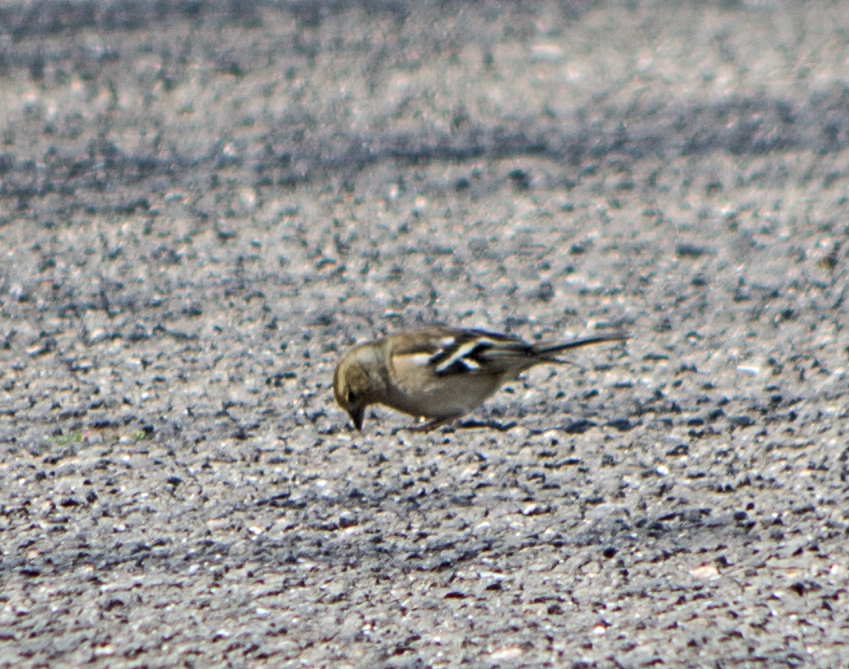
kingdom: Animalia
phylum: Chordata
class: Aves
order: Passeriformes
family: Fringillidae
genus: Fringilla
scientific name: Fringilla coelebs
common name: Common chaffinch
